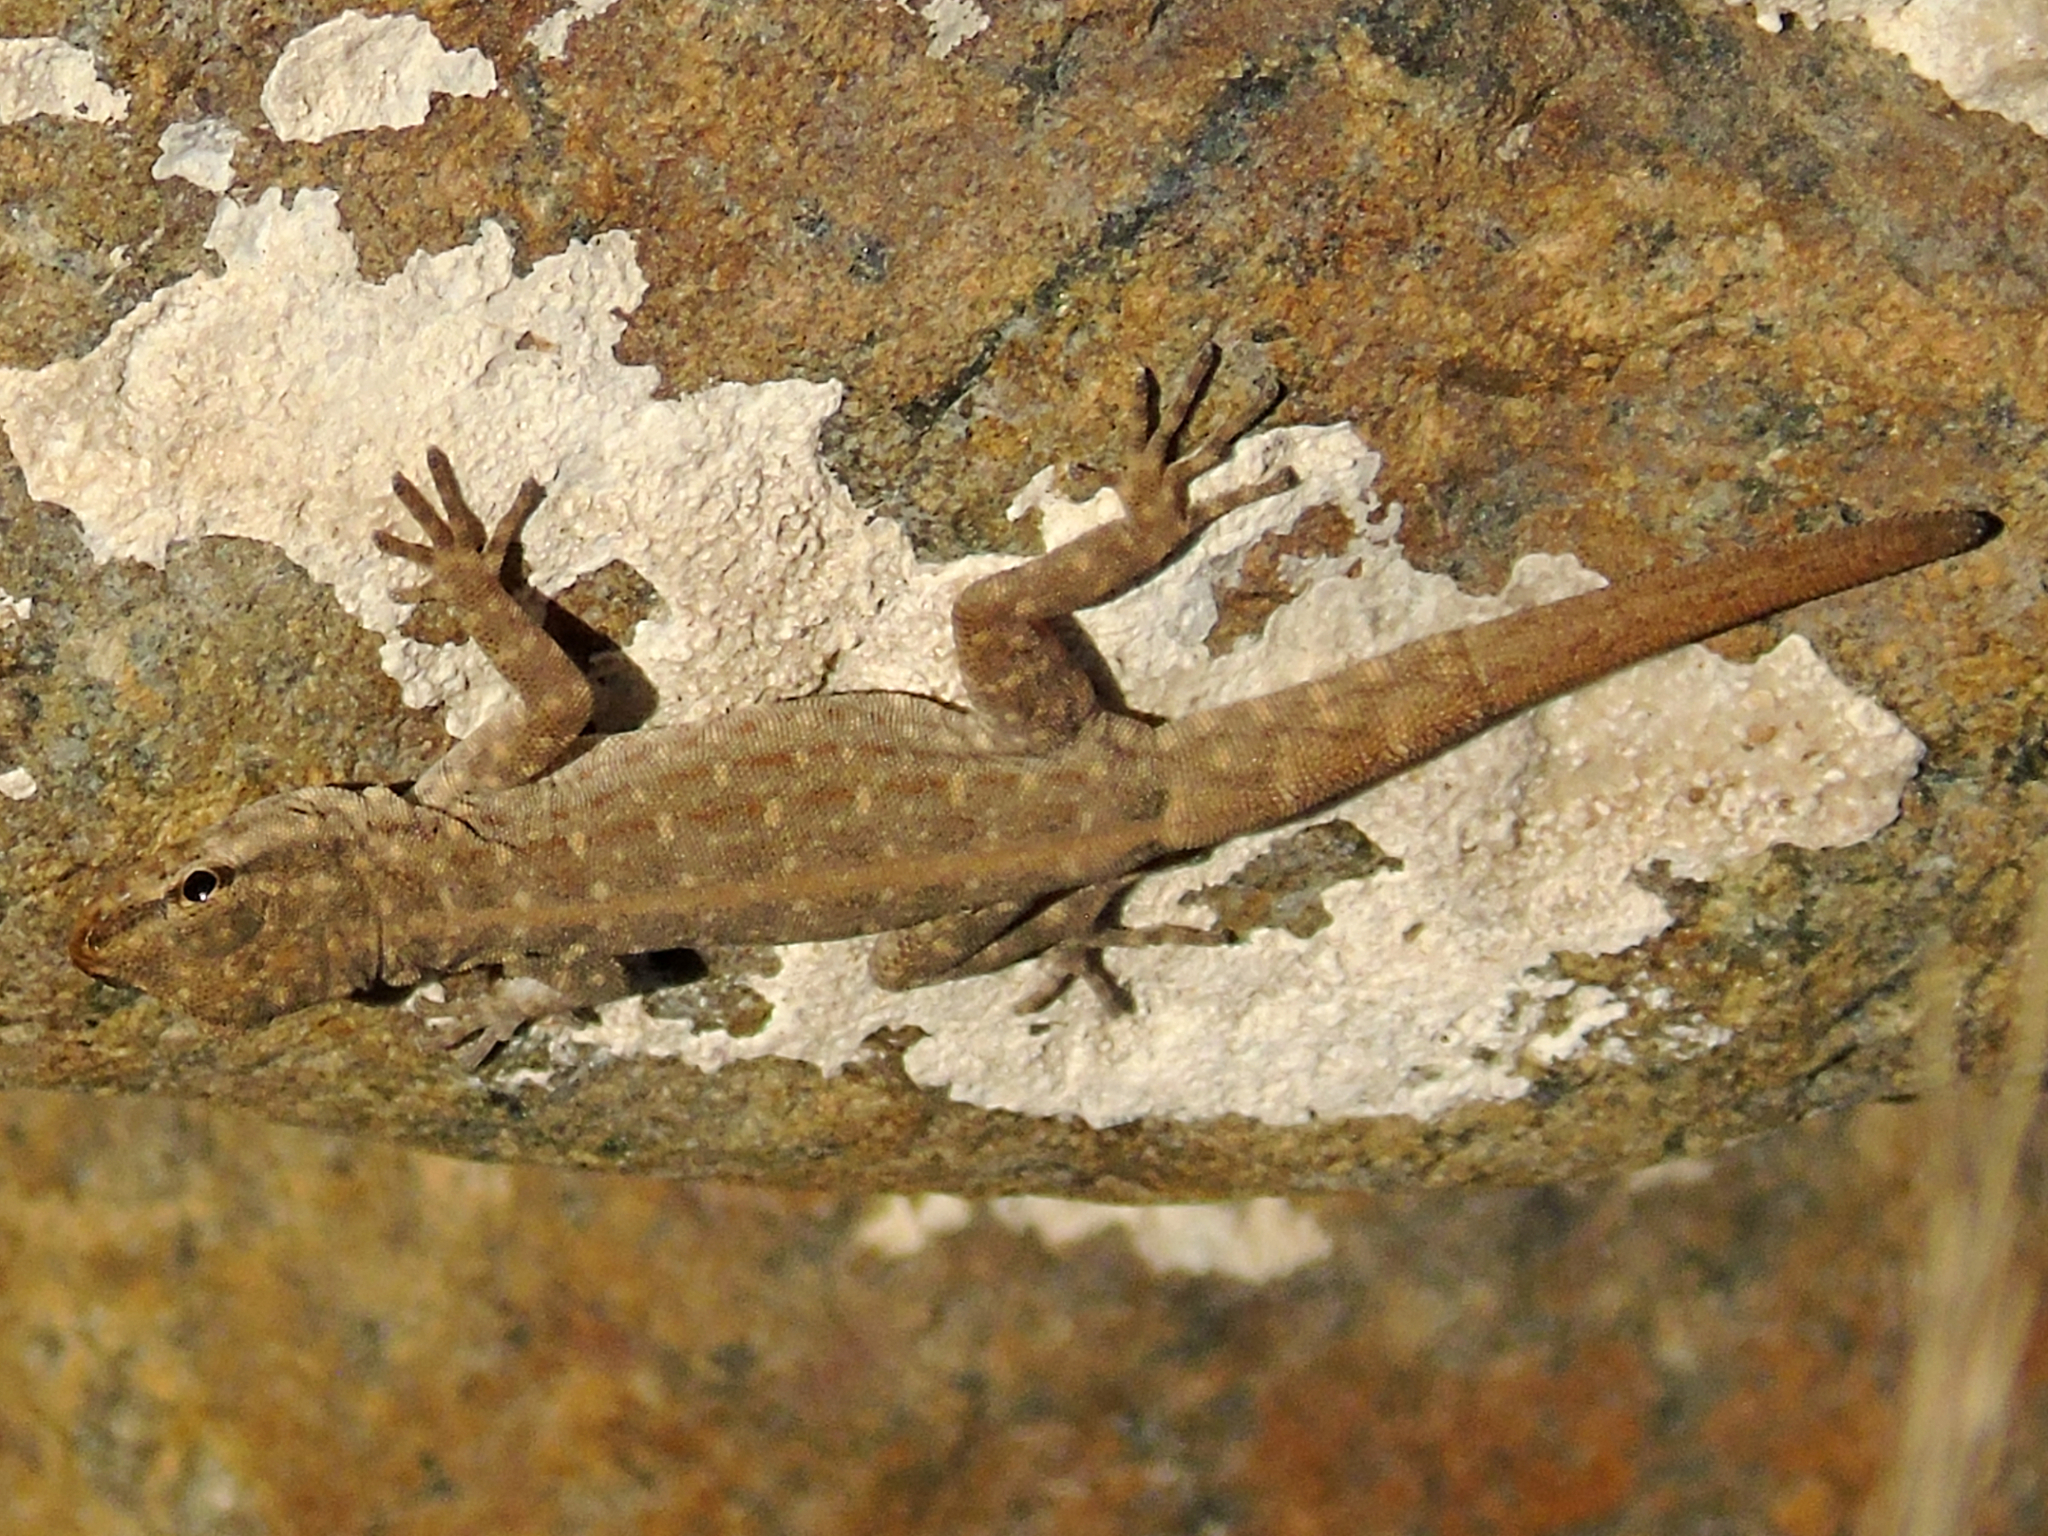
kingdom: Animalia
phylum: Chordata
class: Squamata
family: Sphaerodactylidae
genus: Pristurus
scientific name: Pristurus rupestris
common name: Blanford’s semaphore gecko
